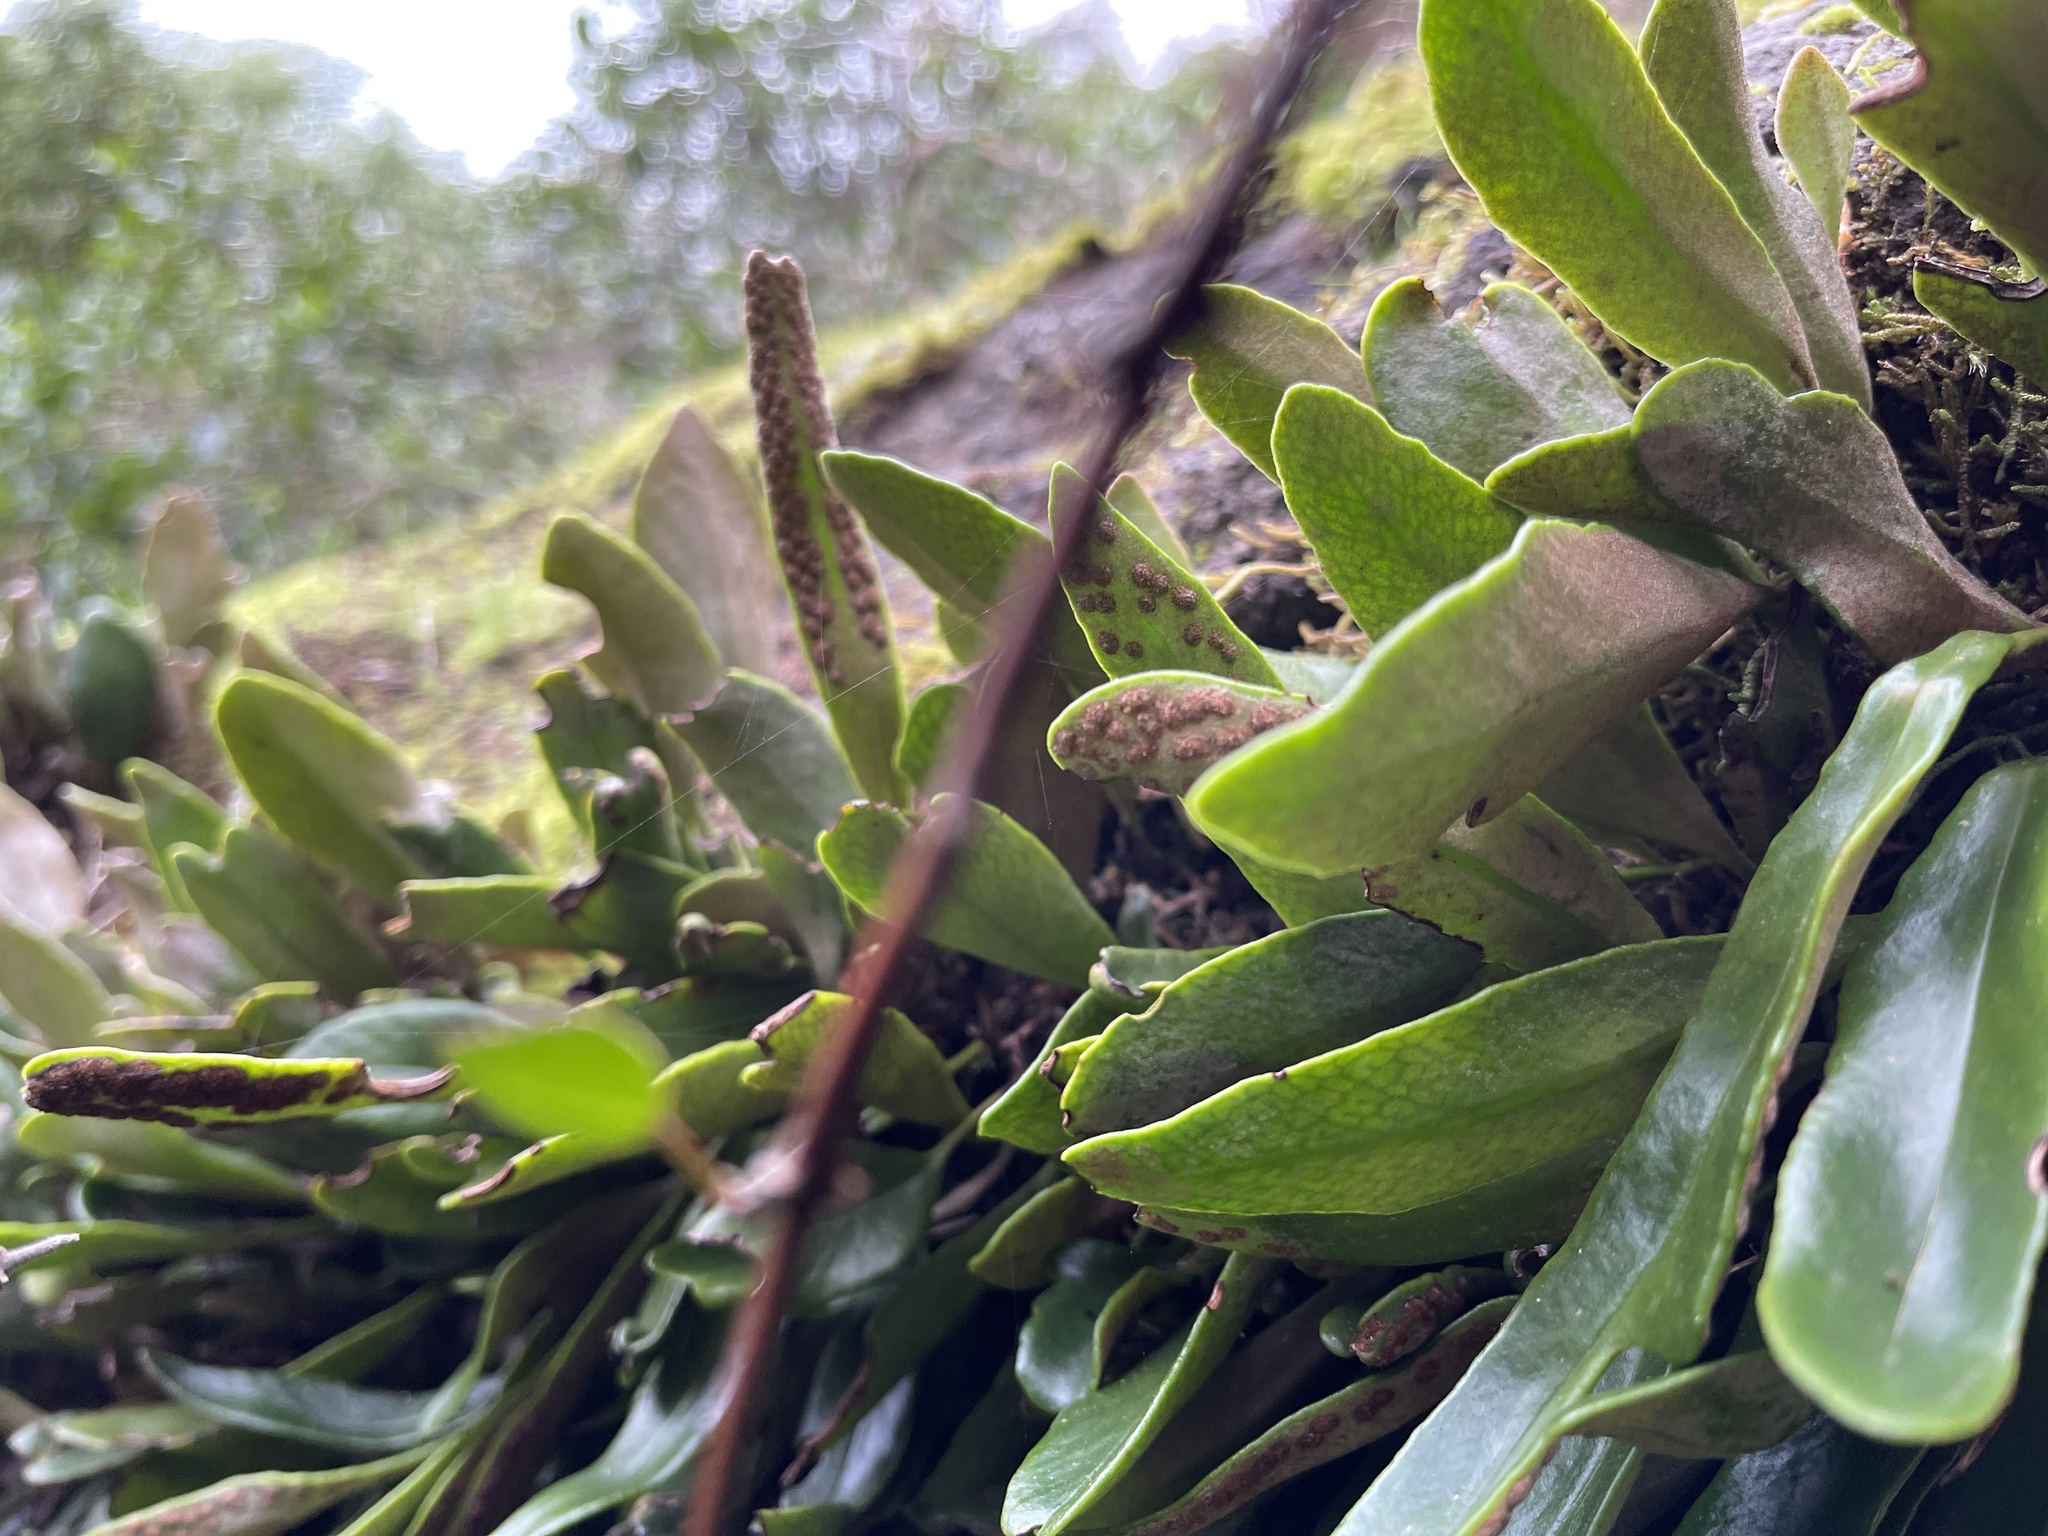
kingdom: Plantae
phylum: Tracheophyta
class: Polypodiopsida
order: Polypodiales
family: Polypodiaceae
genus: Pyrrosia
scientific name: Pyrrosia eleagnifolia
